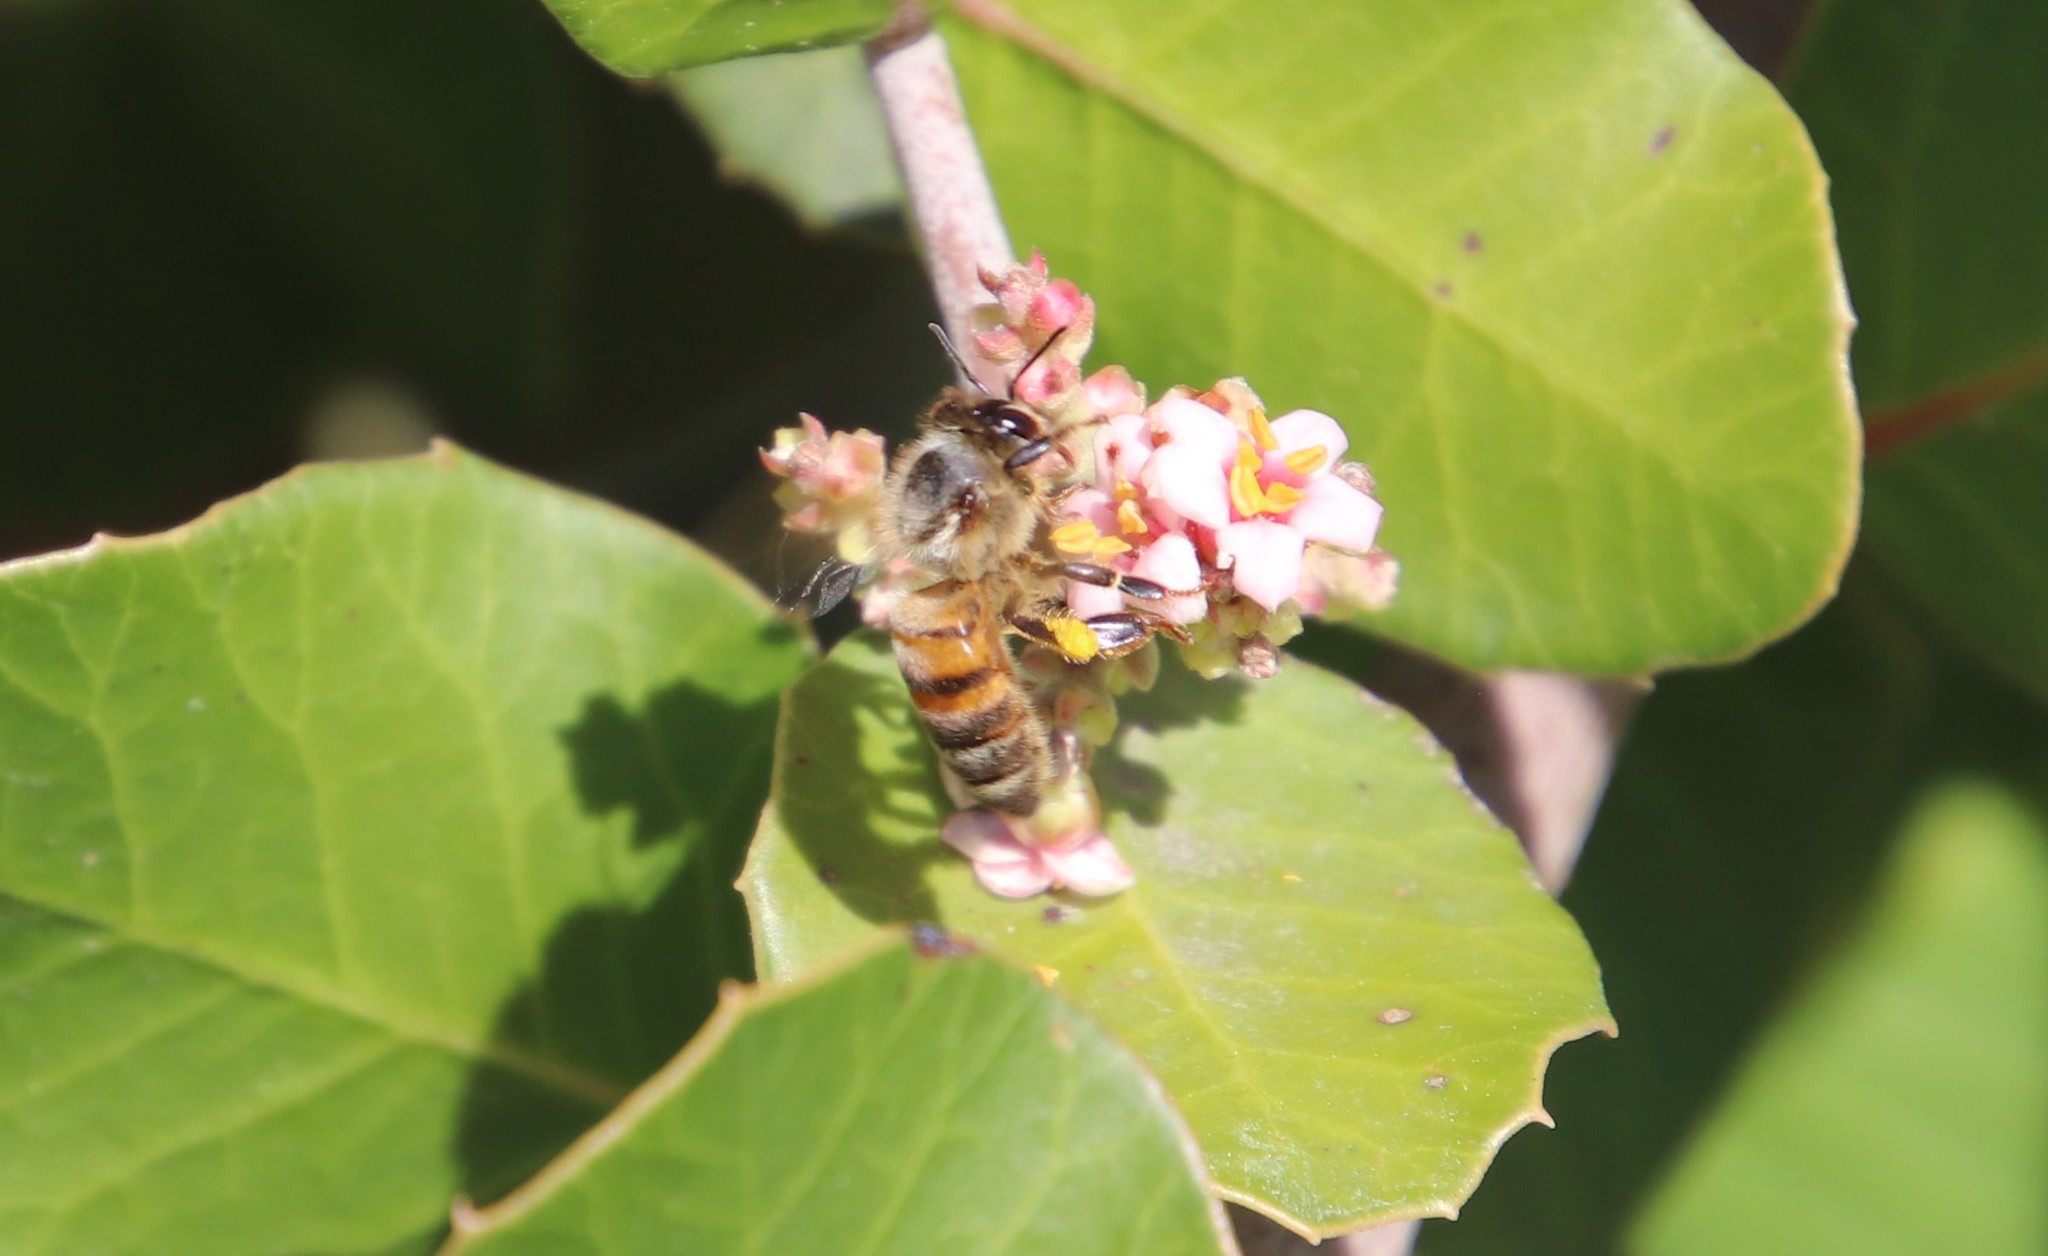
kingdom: Animalia
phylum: Arthropoda
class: Insecta
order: Hymenoptera
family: Apidae
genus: Apis
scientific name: Apis mellifera
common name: Honey bee
